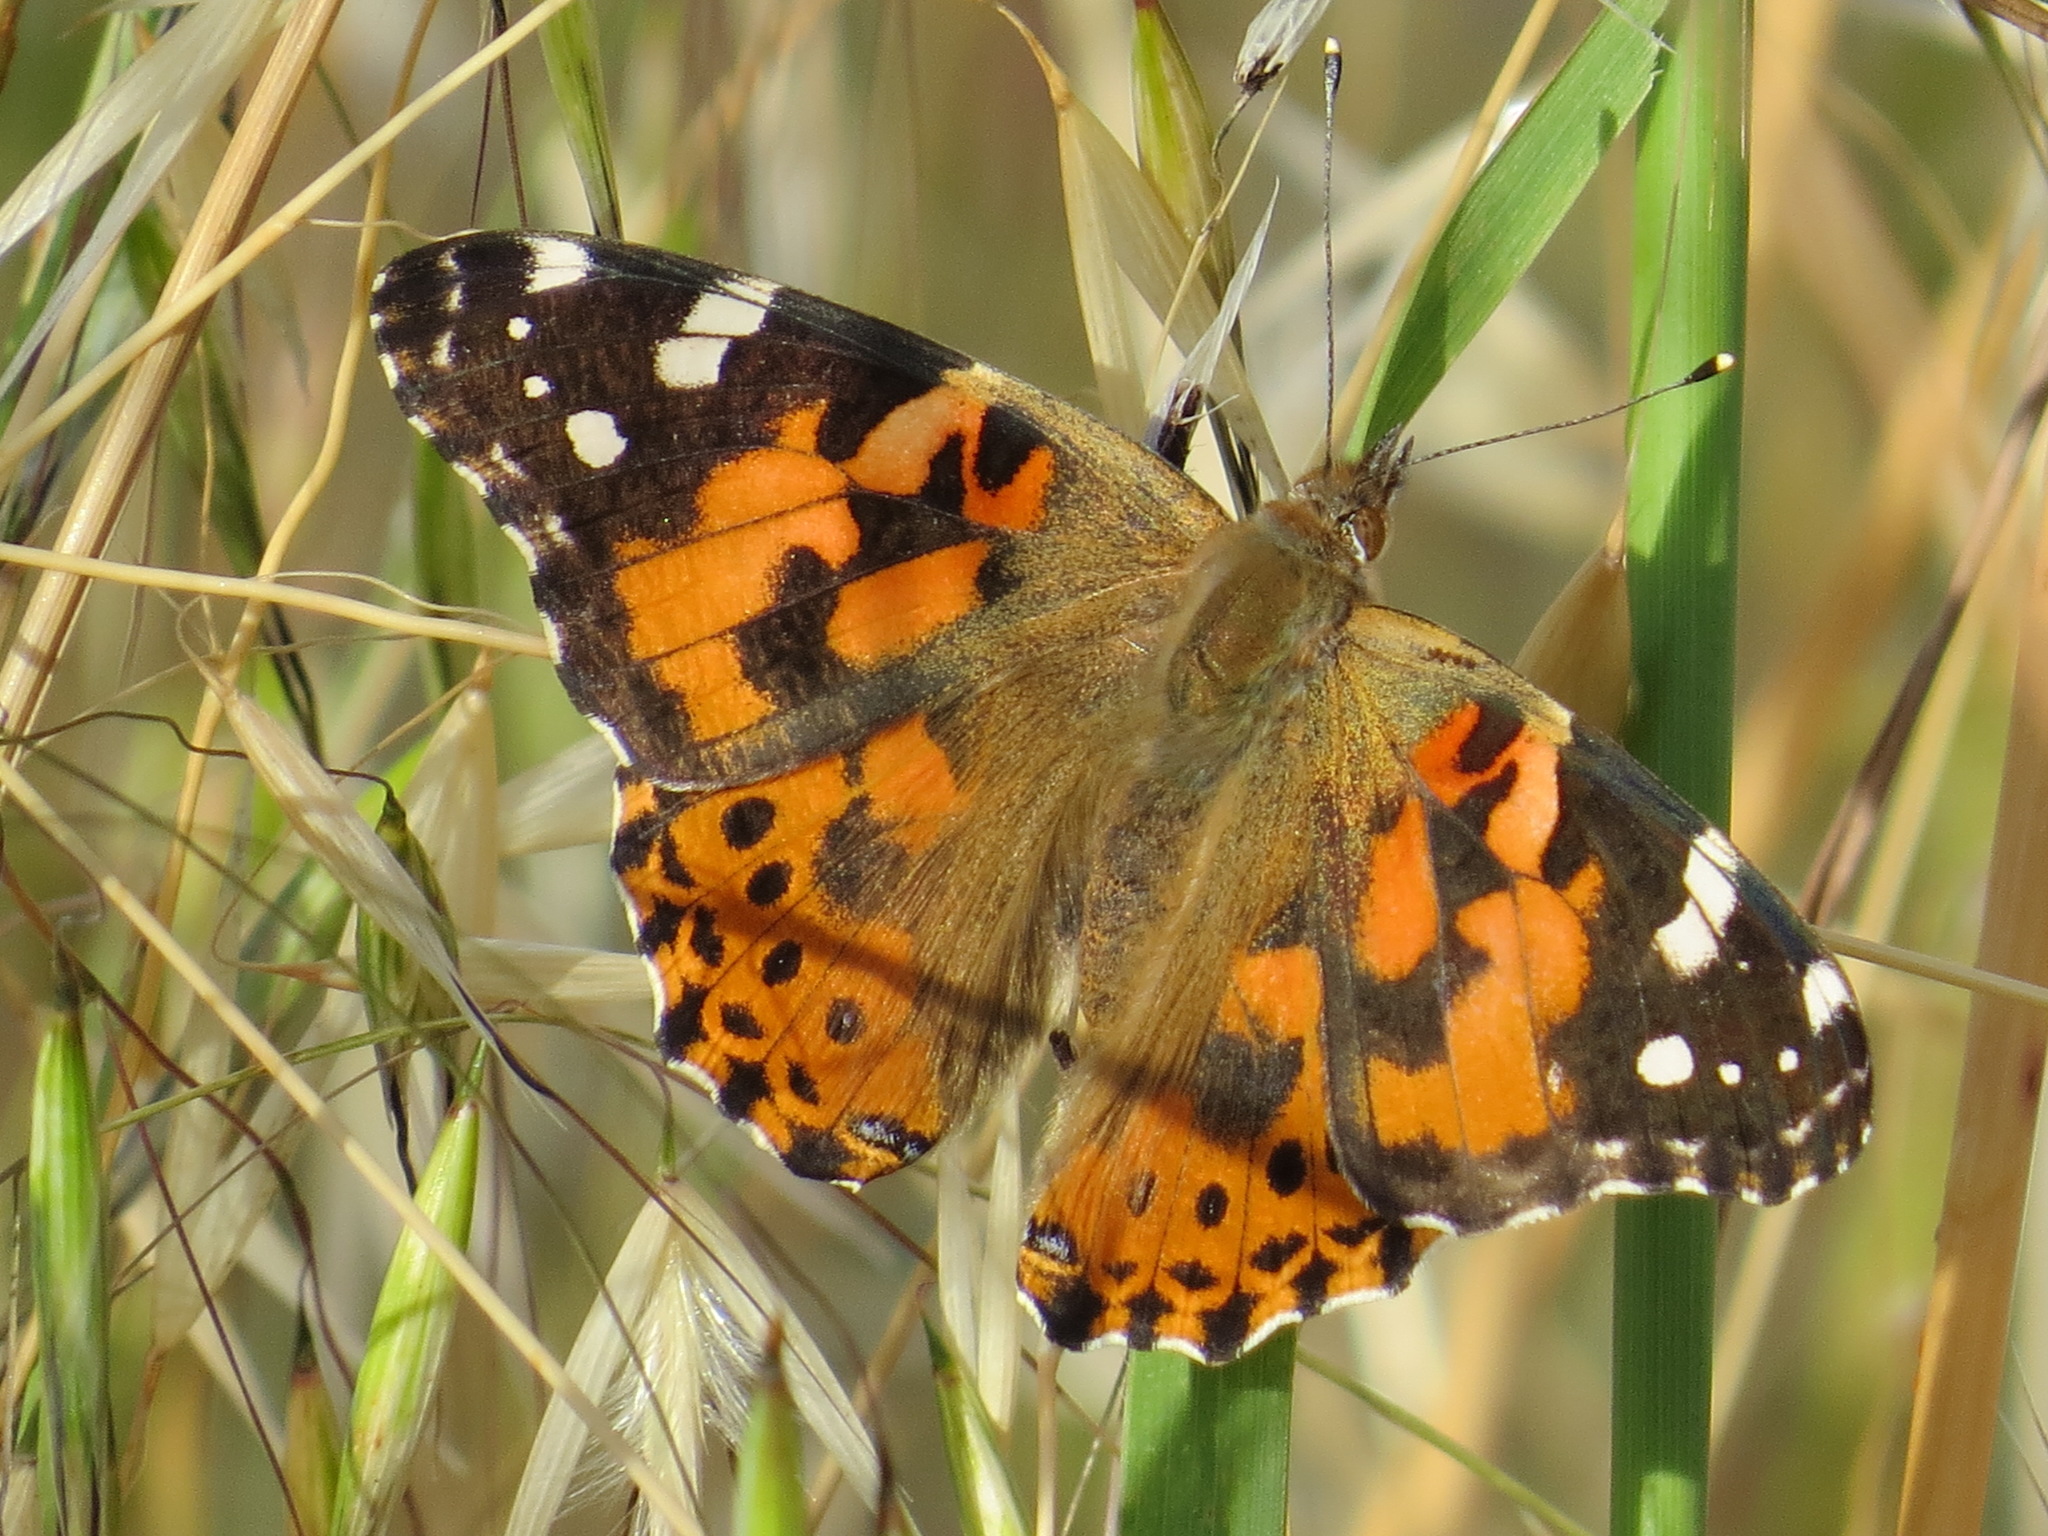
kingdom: Animalia
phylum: Arthropoda
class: Insecta
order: Lepidoptera
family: Nymphalidae
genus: Vanessa
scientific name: Vanessa cardui
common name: Painted lady
